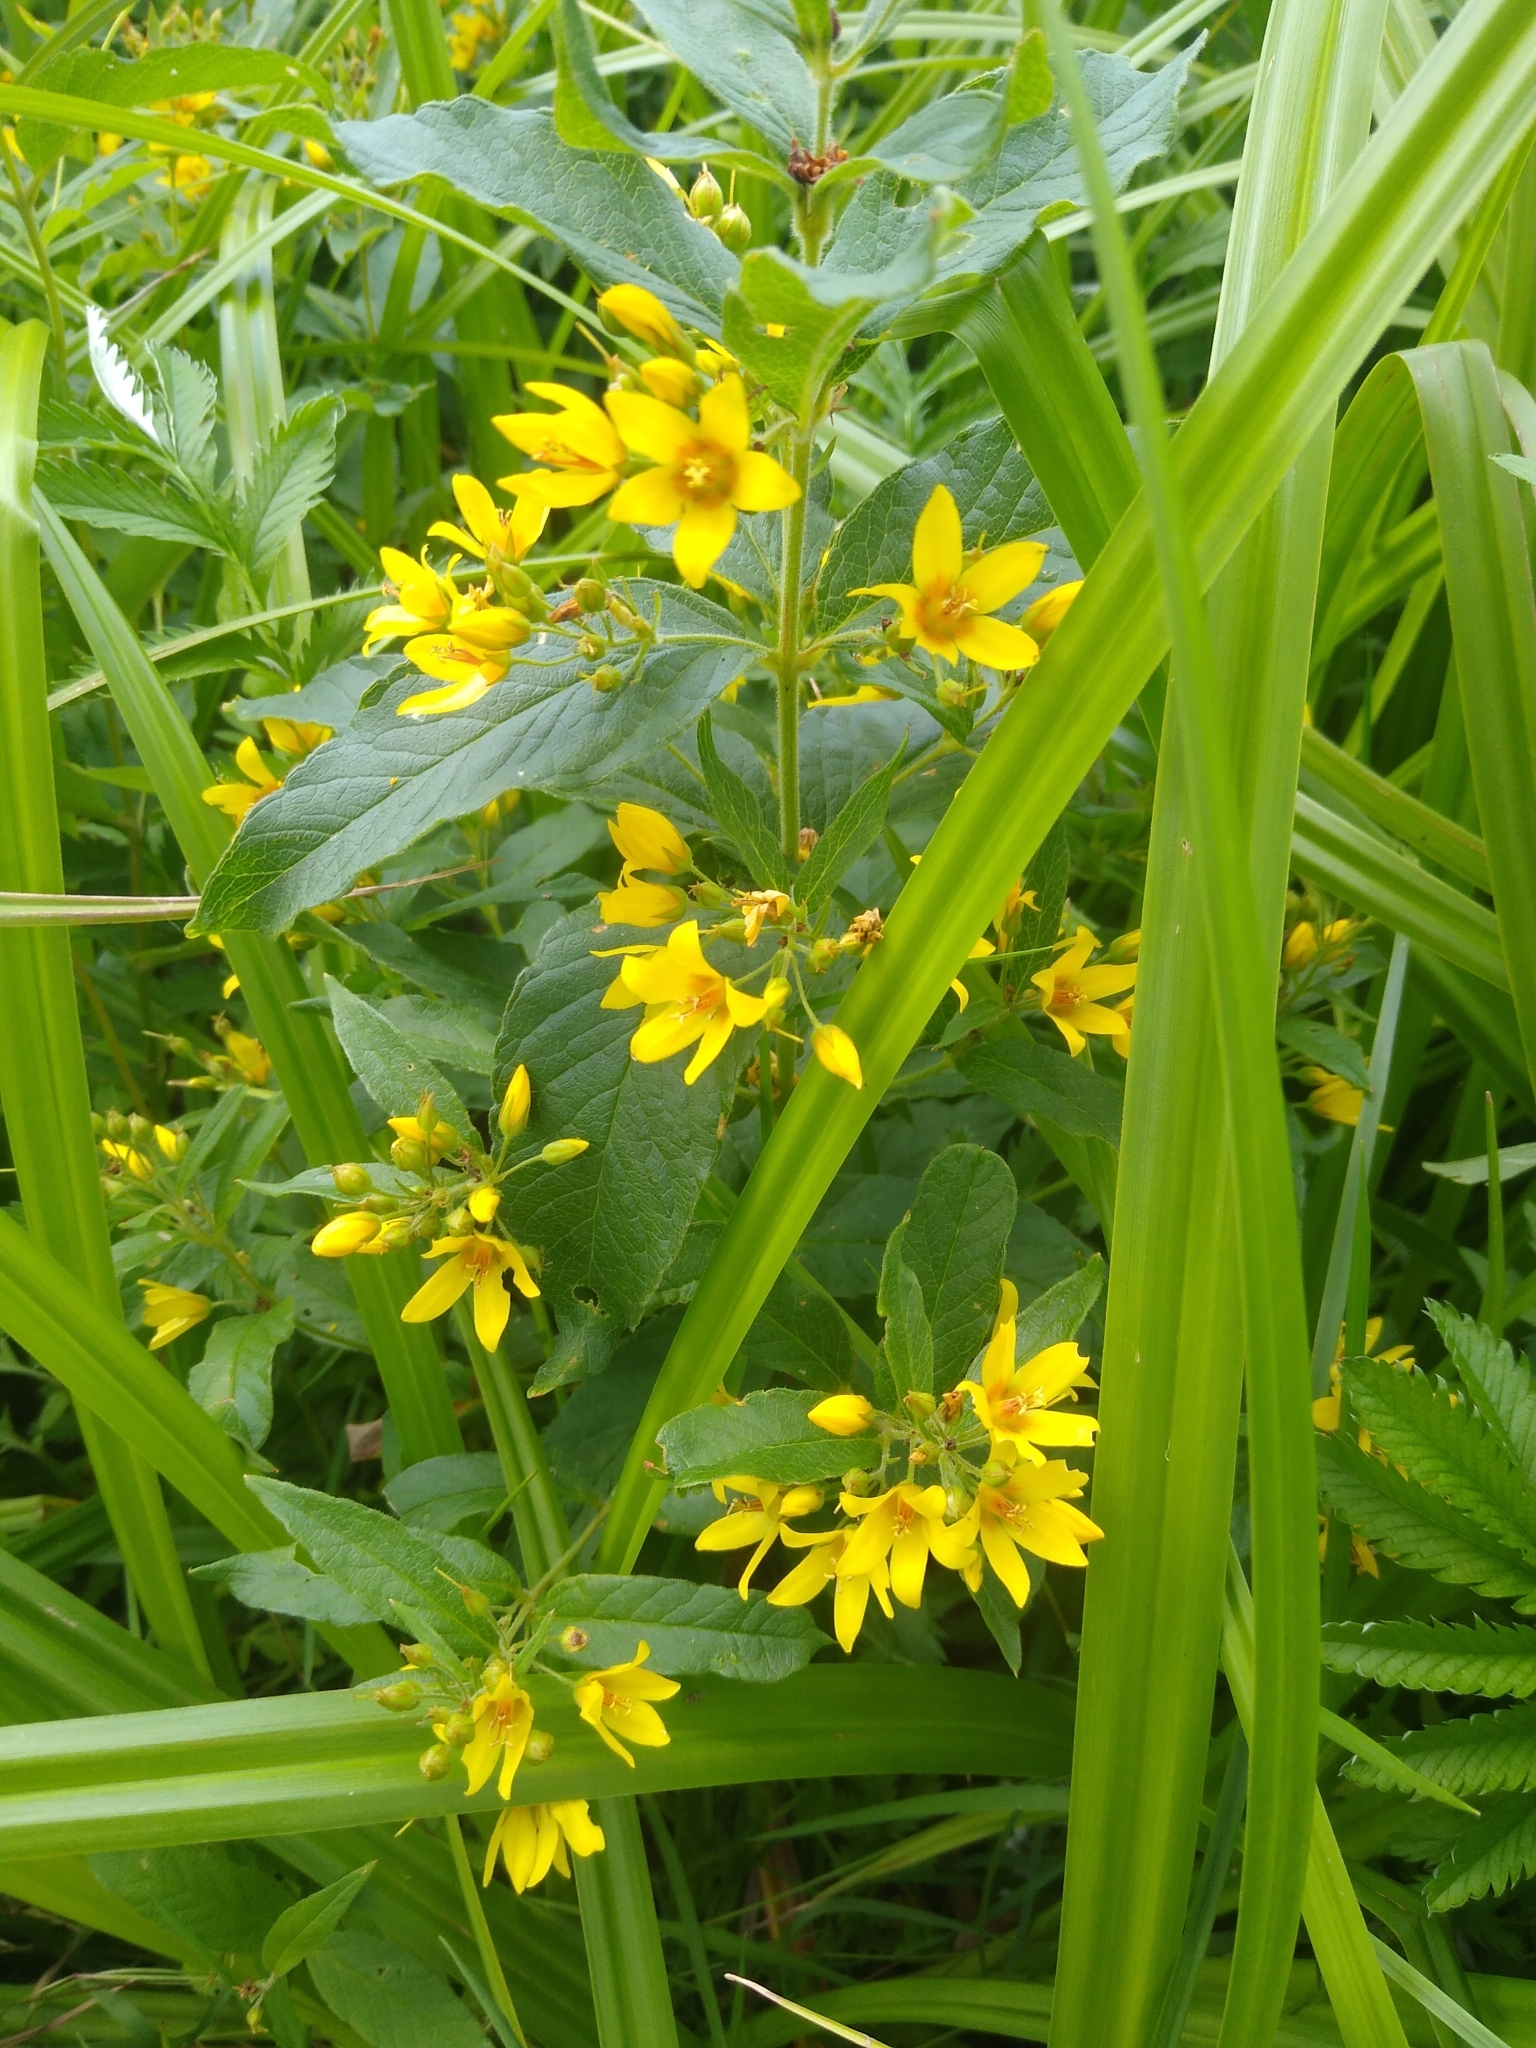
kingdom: Plantae
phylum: Tracheophyta
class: Magnoliopsida
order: Ericales
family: Primulaceae
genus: Lysimachia
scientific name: Lysimachia vulgaris
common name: Yellow loosestrife
